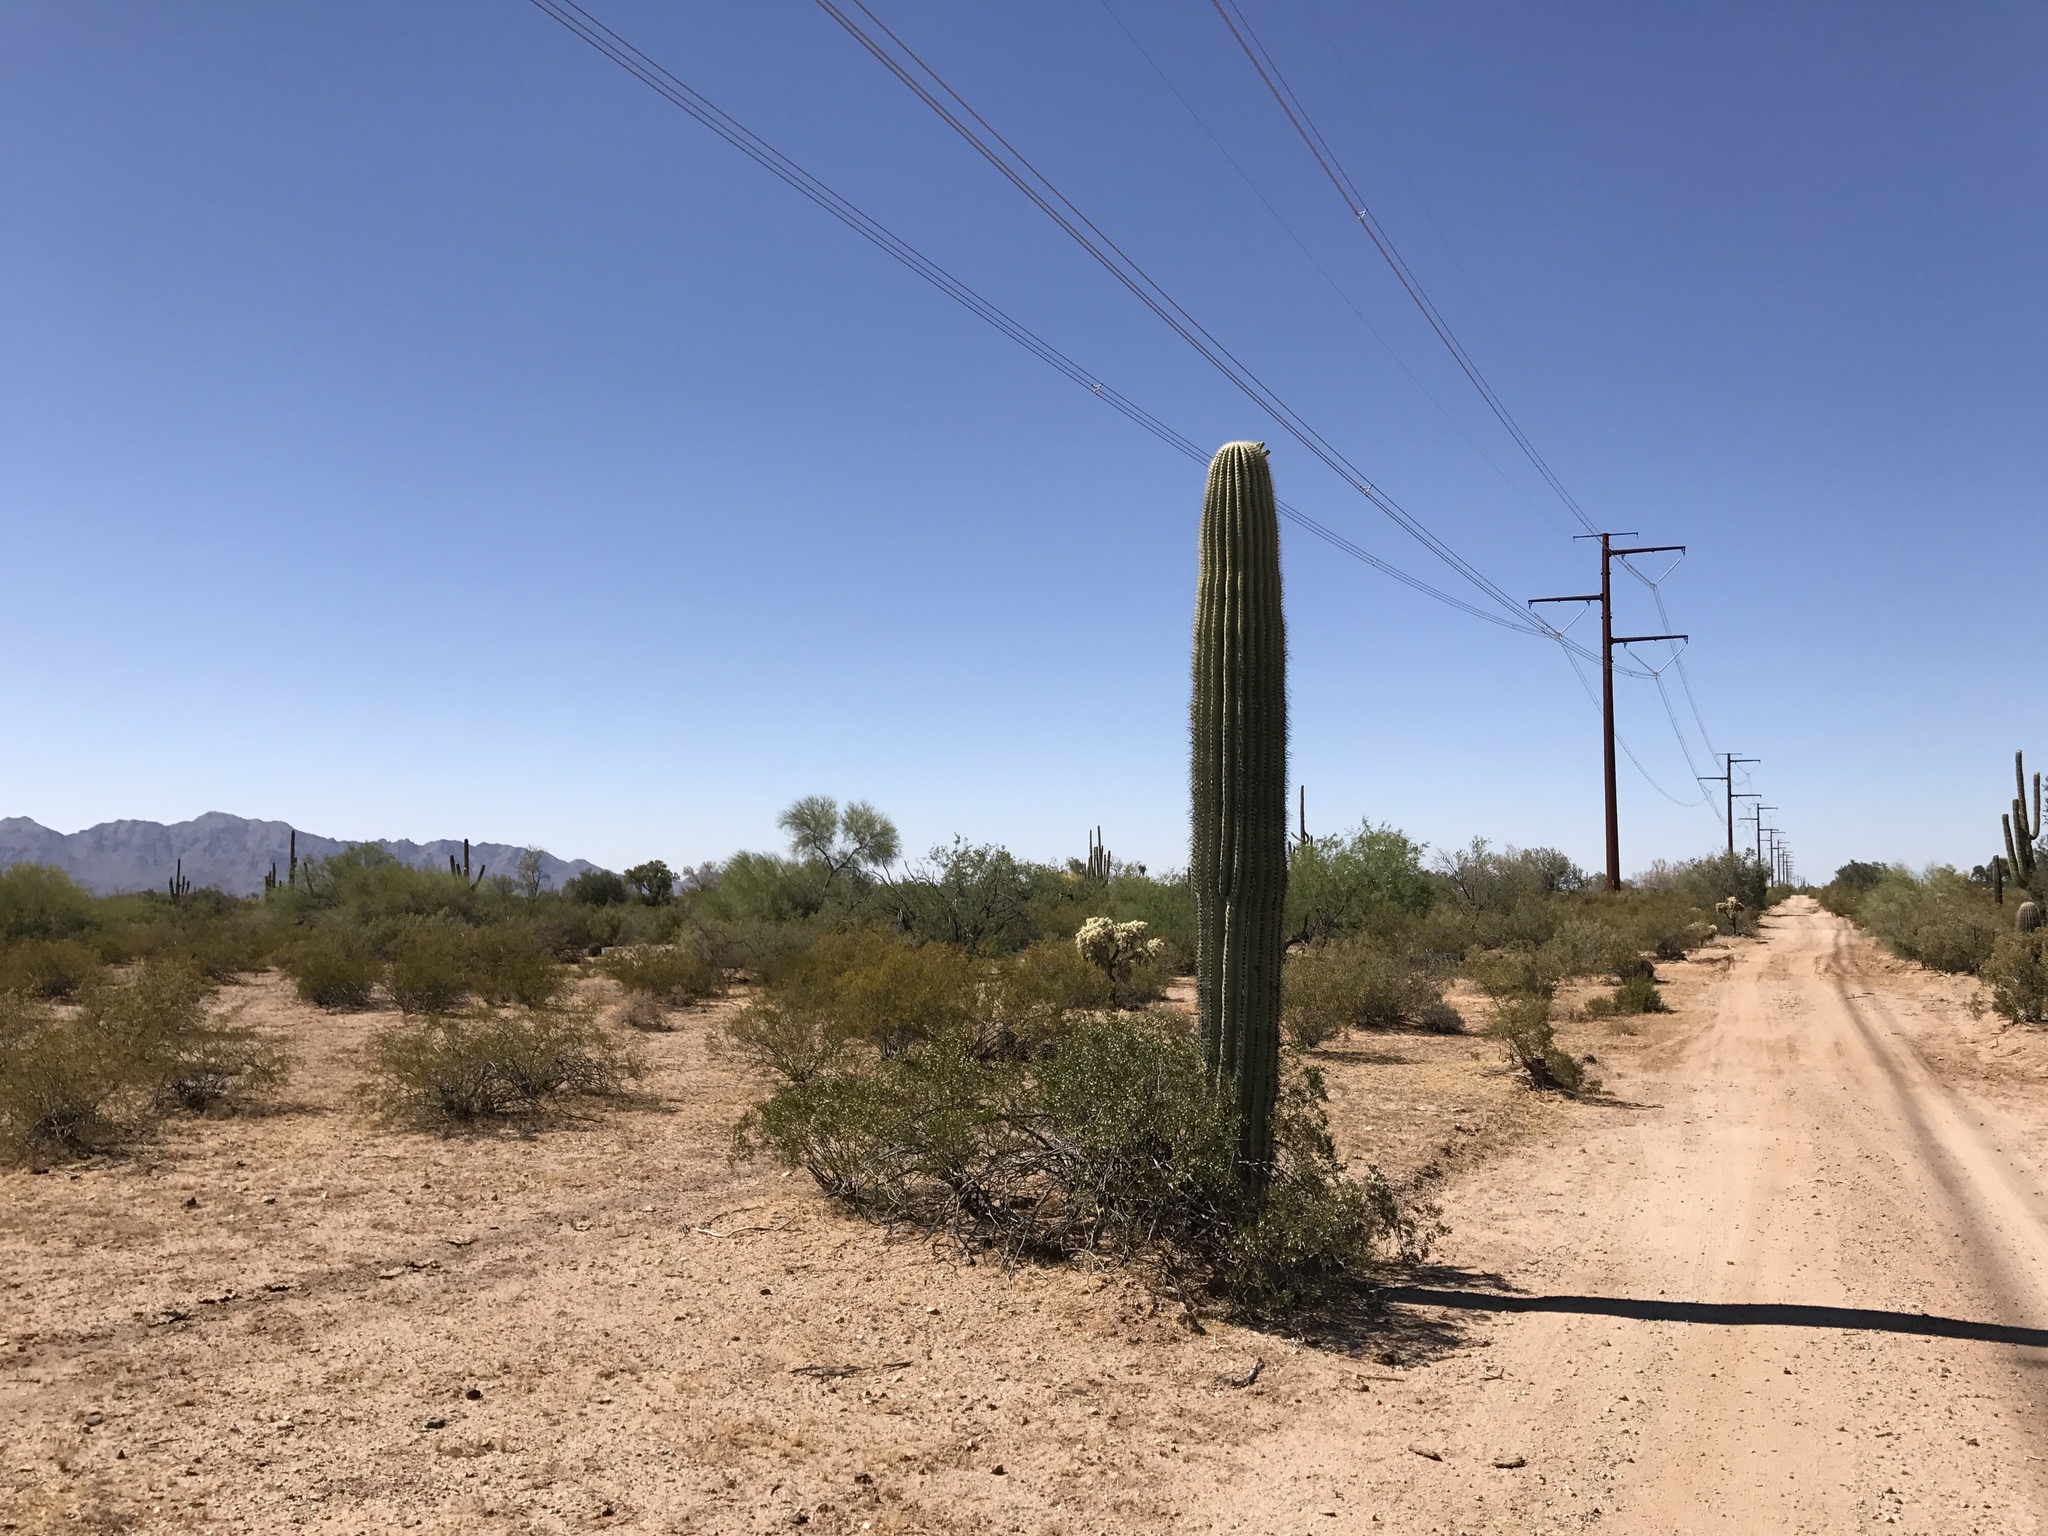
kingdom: Plantae
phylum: Tracheophyta
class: Magnoliopsida
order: Caryophyllales
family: Cactaceae
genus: Carnegiea
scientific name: Carnegiea gigantea
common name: Saguaro
